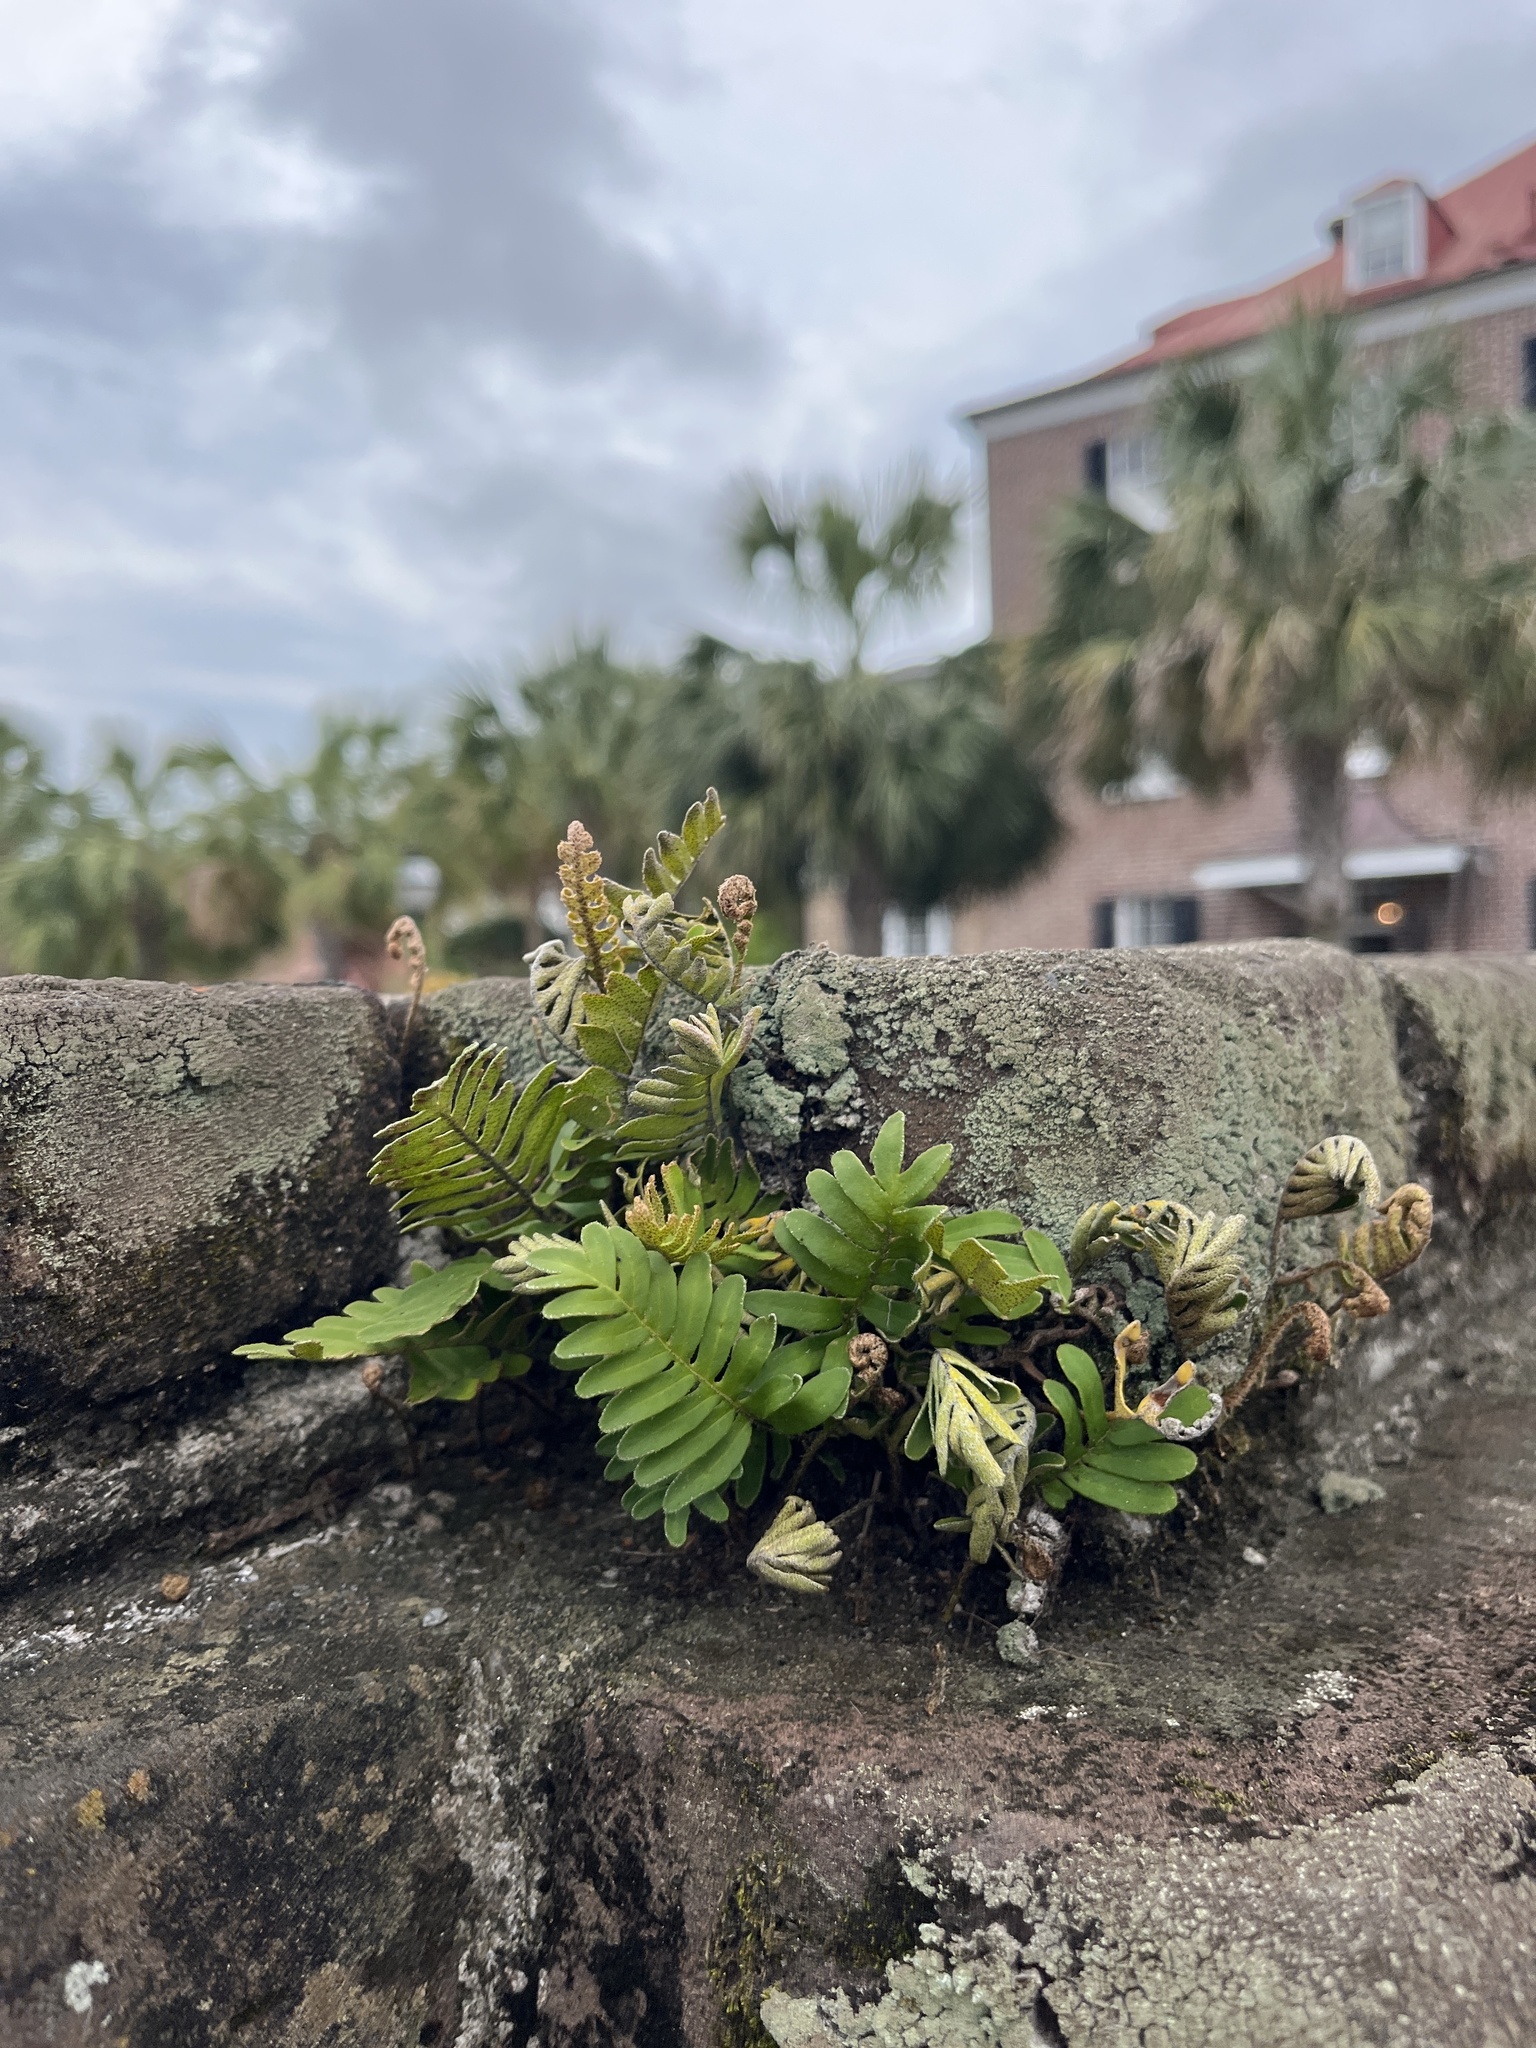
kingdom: Plantae
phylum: Tracheophyta
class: Polypodiopsida
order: Polypodiales
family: Polypodiaceae
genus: Pleopeltis
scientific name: Pleopeltis michauxiana
